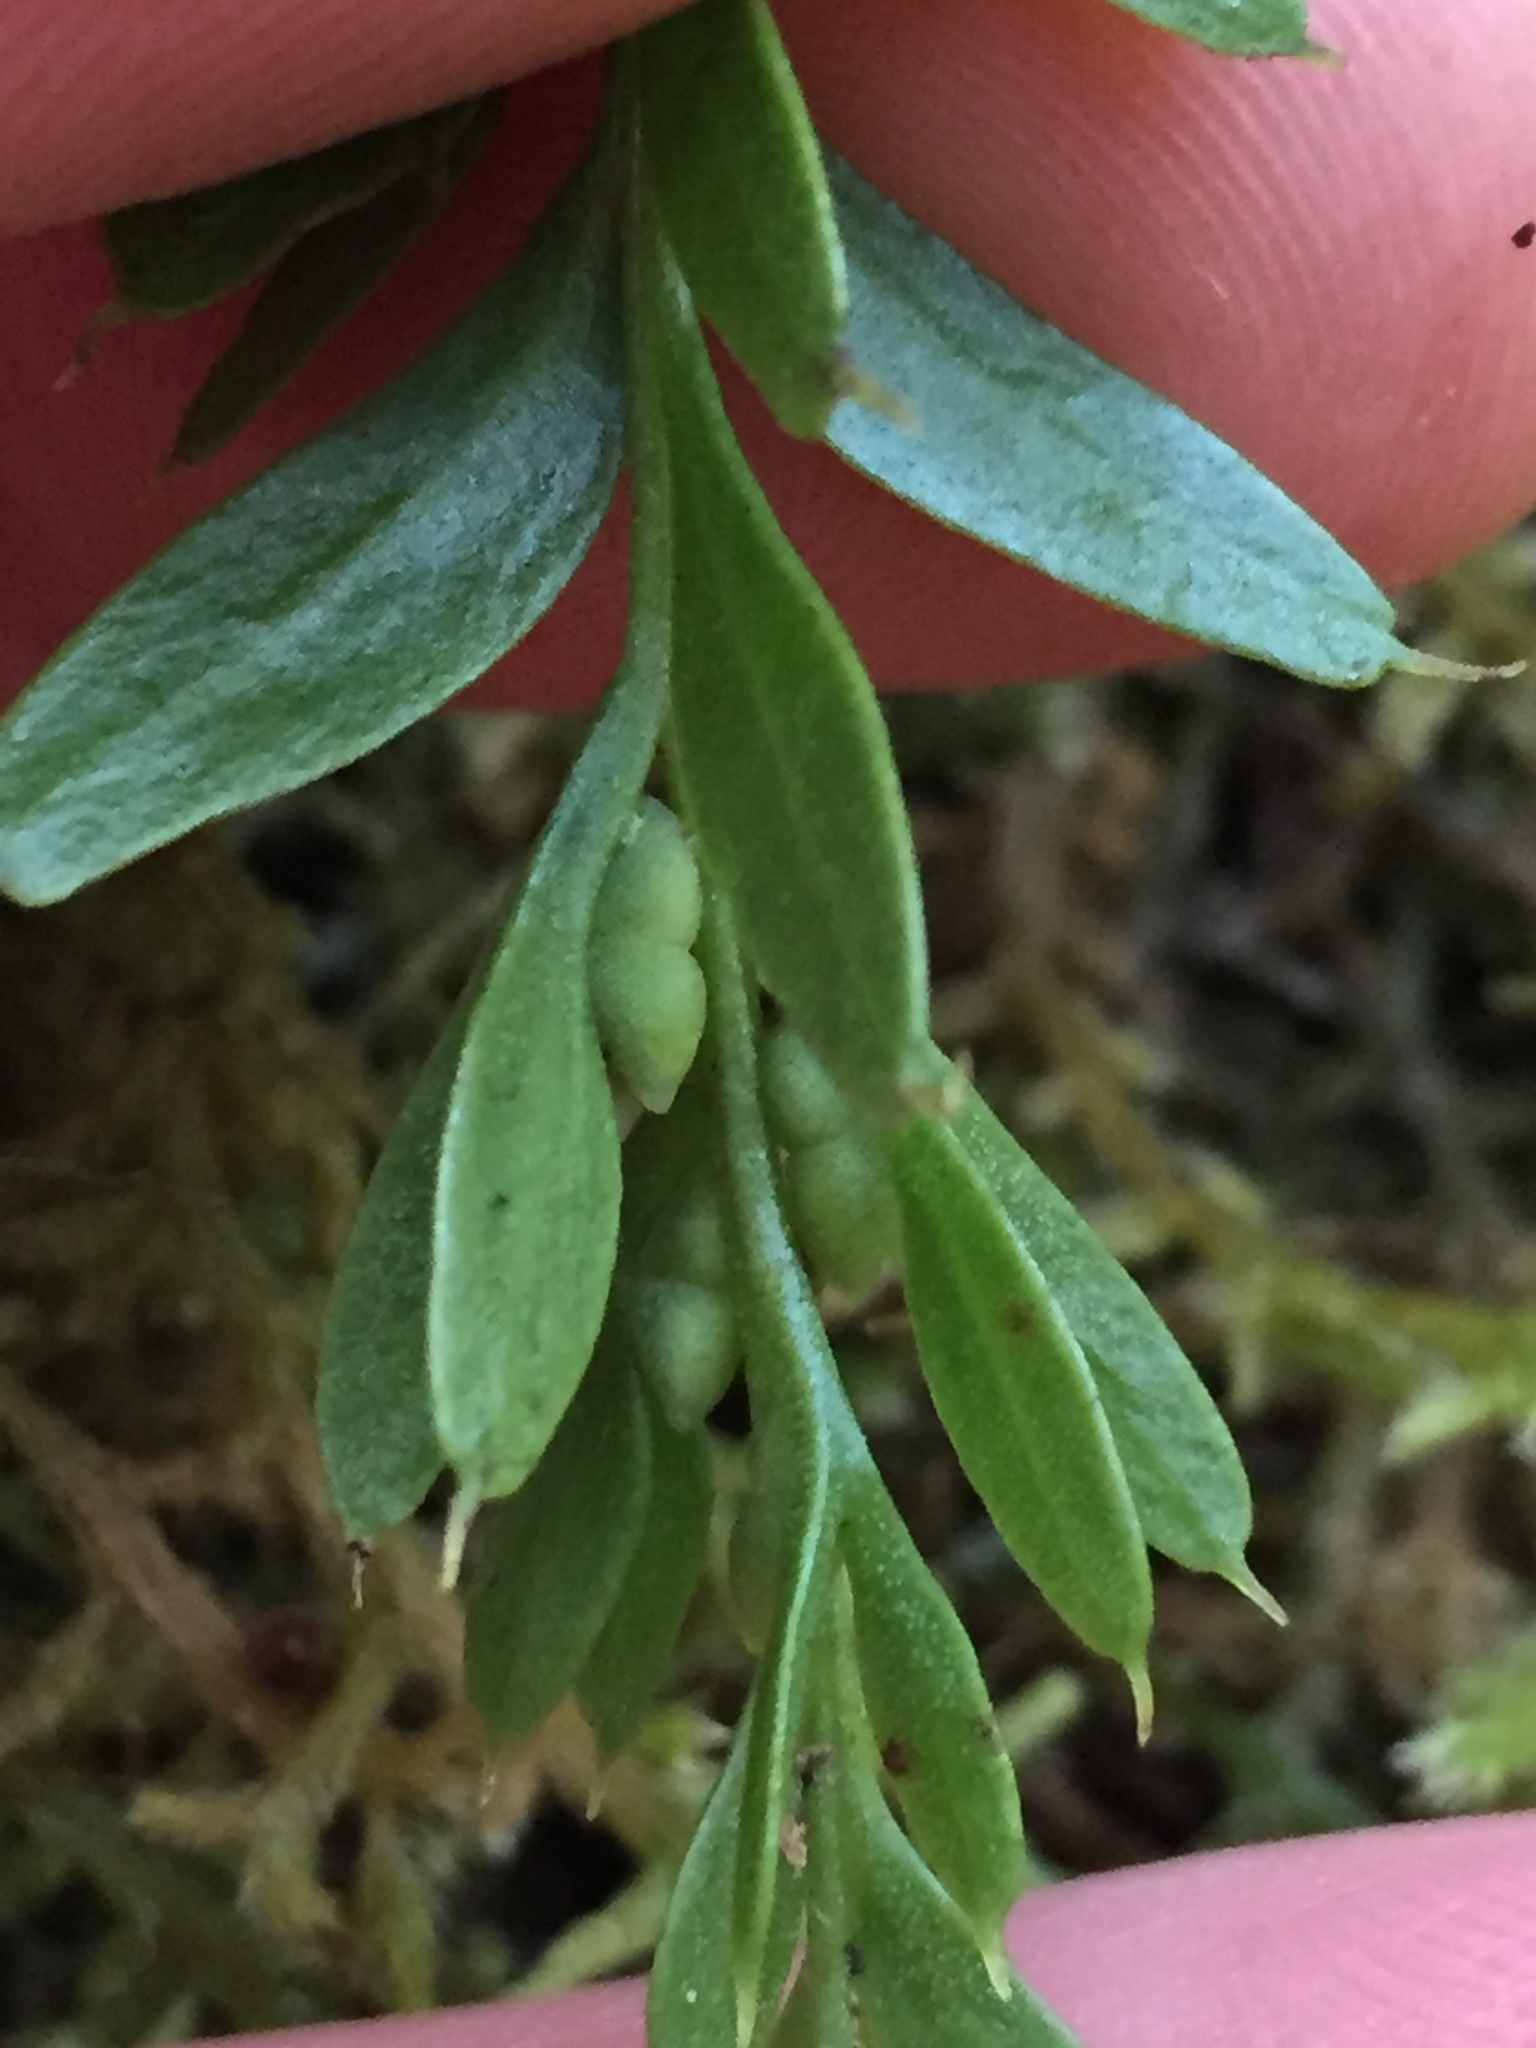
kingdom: Plantae
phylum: Tracheophyta
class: Polypodiopsida
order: Psilotales
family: Psilotaceae
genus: Tmesipteris
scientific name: Tmesipteris tannensis
